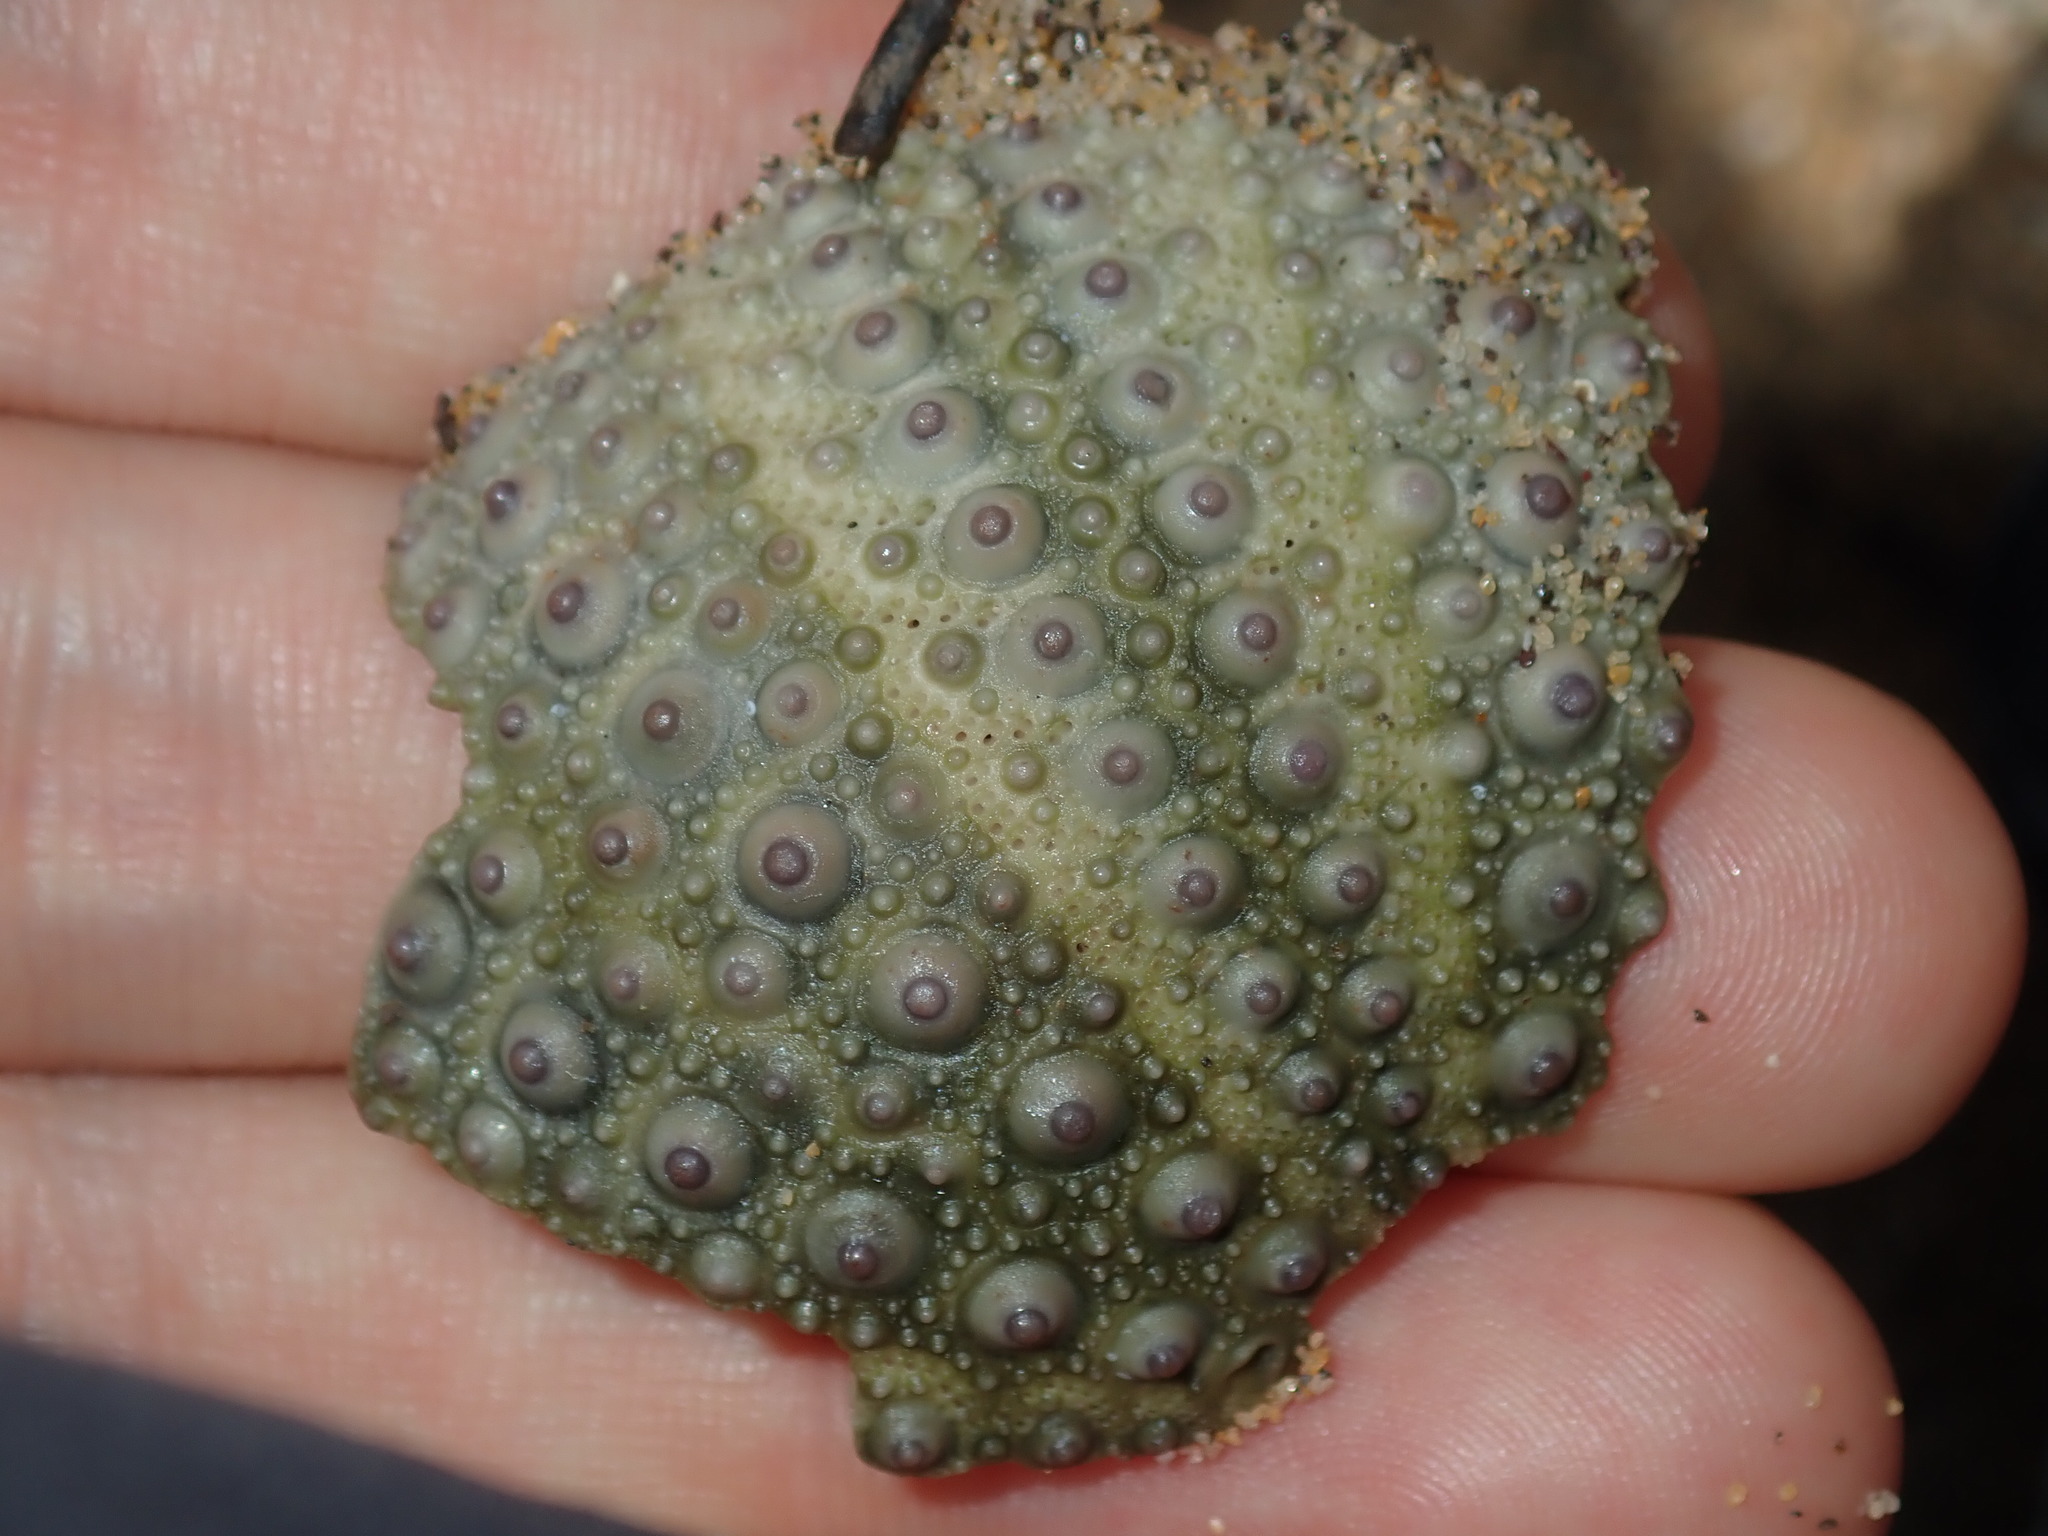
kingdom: Animalia
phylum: Echinodermata
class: Echinoidea
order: Camarodonta
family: Echinometridae
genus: Heliocidaris
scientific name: Heliocidaris erythrogramma
